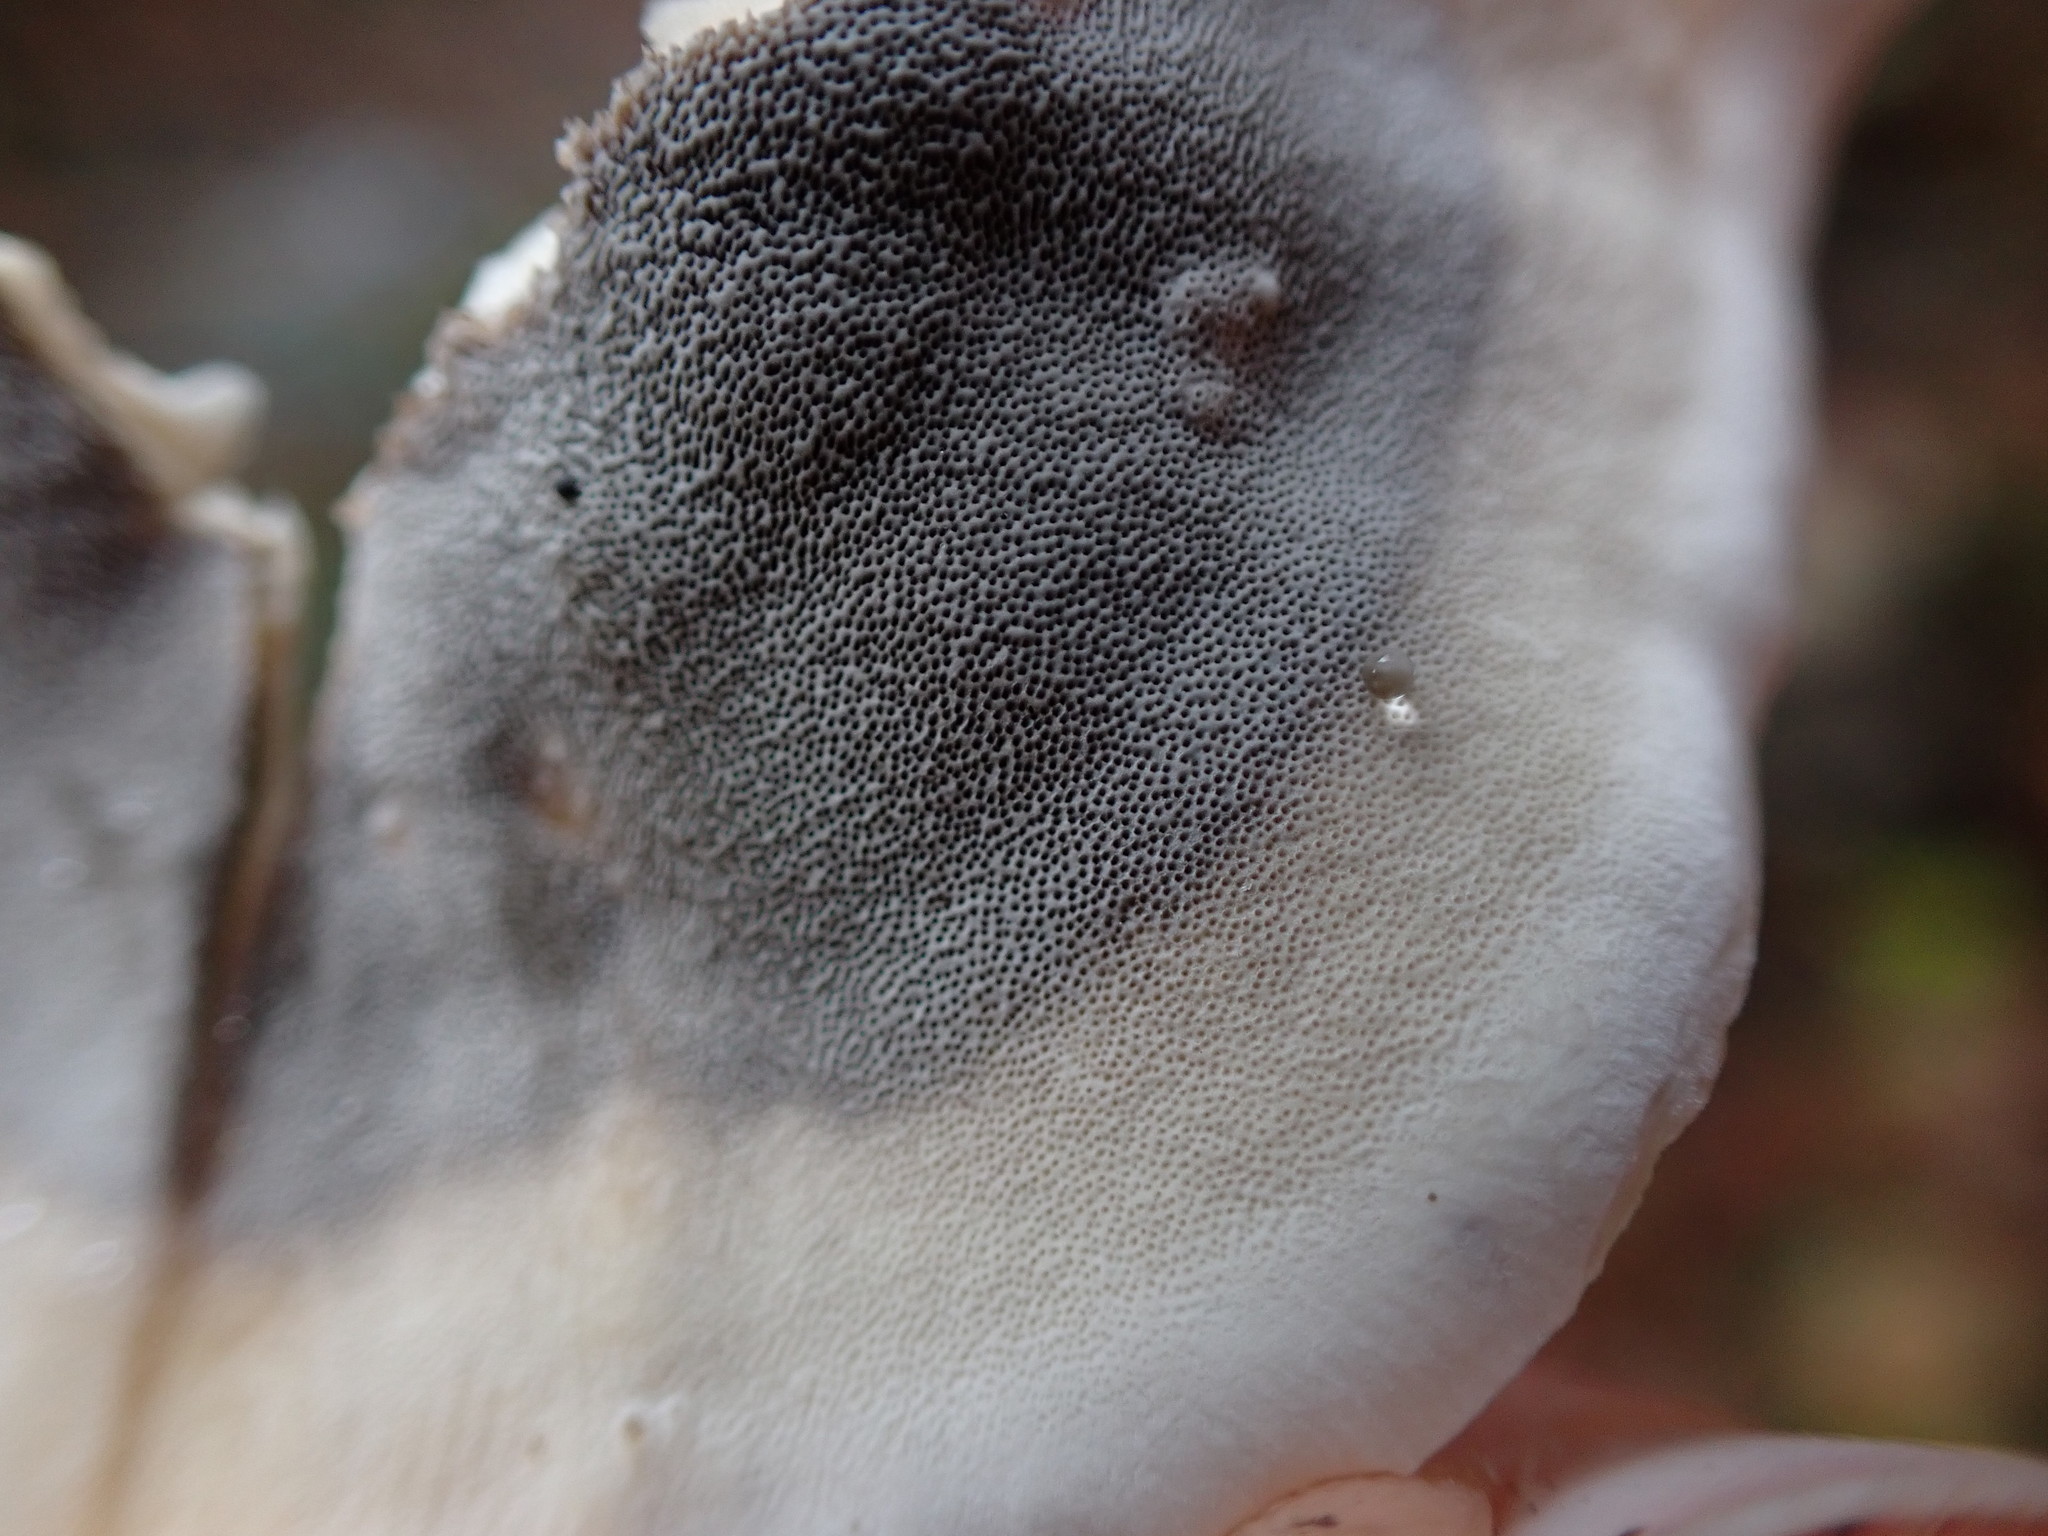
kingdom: Fungi
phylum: Basidiomycota
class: Agaricomycetes
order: Polyporales
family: Phanerochaetaceae
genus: Bjerkandera
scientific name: Bjerkandera adusta
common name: Smoky bracket
